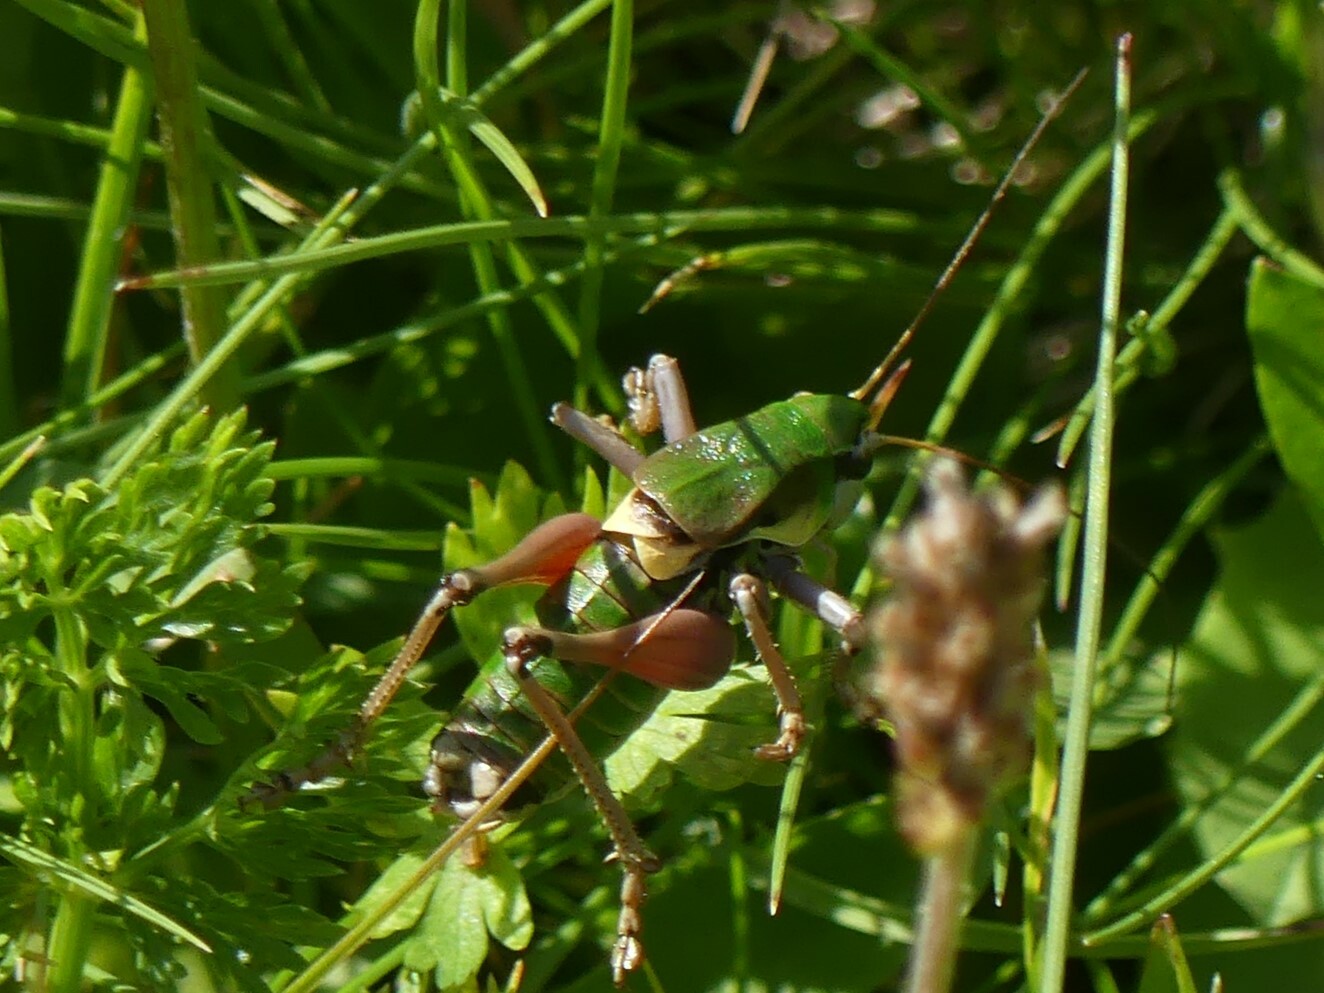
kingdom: Animalia
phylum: Arthropoda
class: Insecta
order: Orthoptera
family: Tettigoniidae
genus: Anonconotus
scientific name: Anonconotus alpinus
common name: Small alpine bush-cricket
